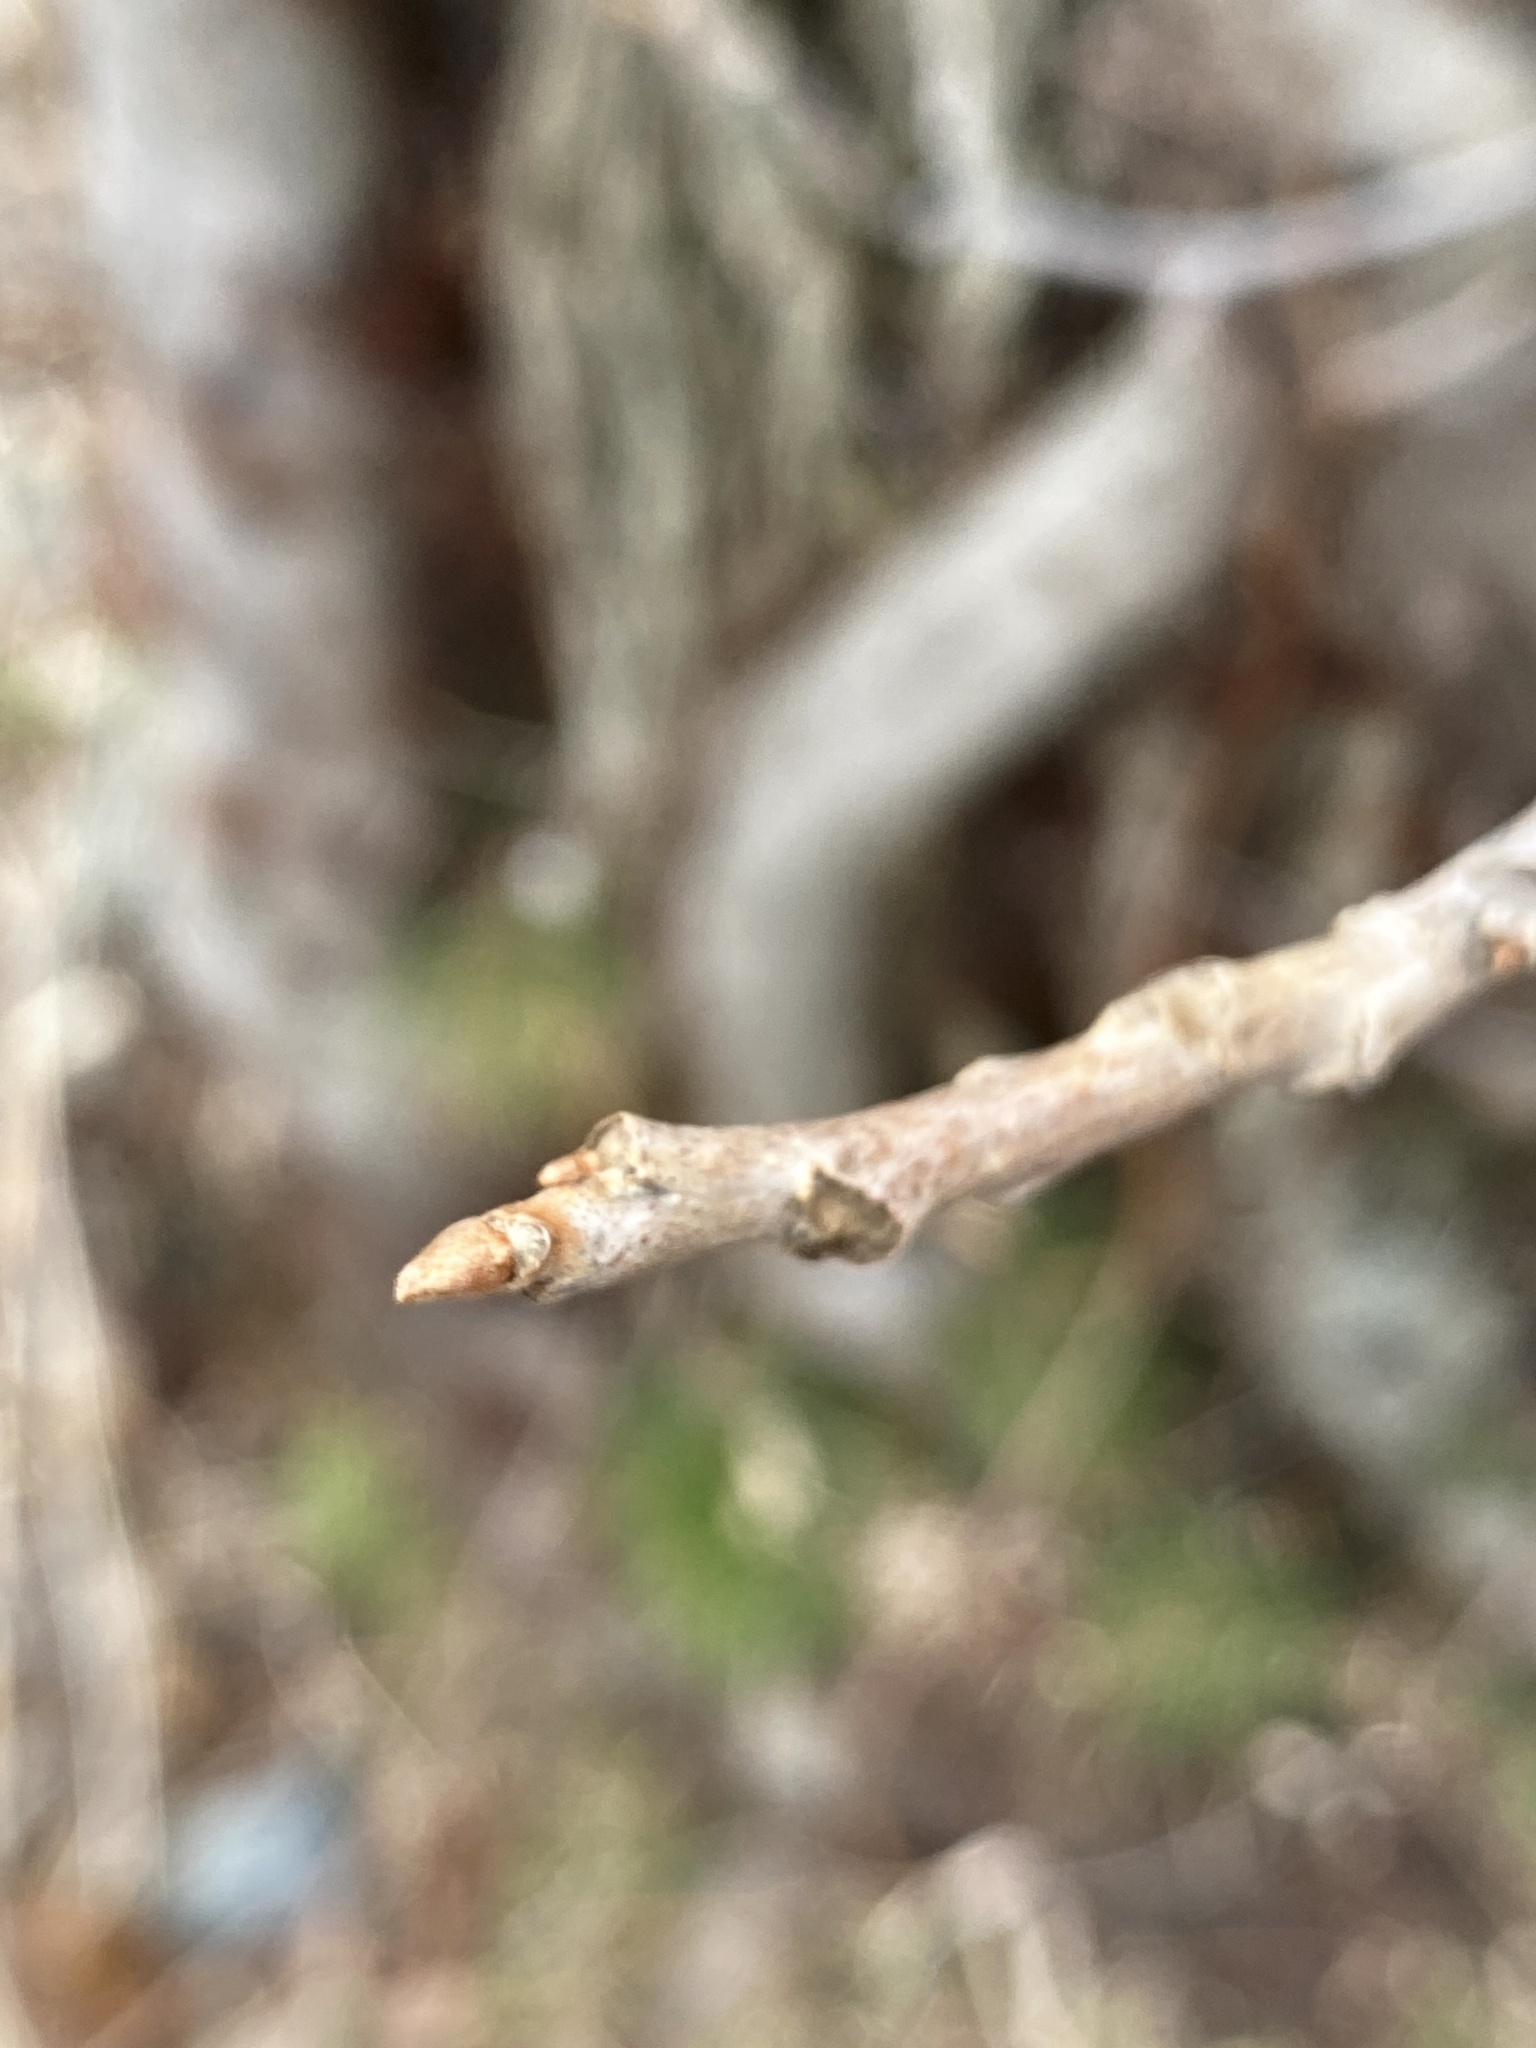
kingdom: Plantae
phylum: Tracheophyta
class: Magnoliopsida
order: Sapindales
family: Anacardiaceae
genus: Toxicodendron
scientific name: Toxicodendron radicans
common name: Poison ivy
